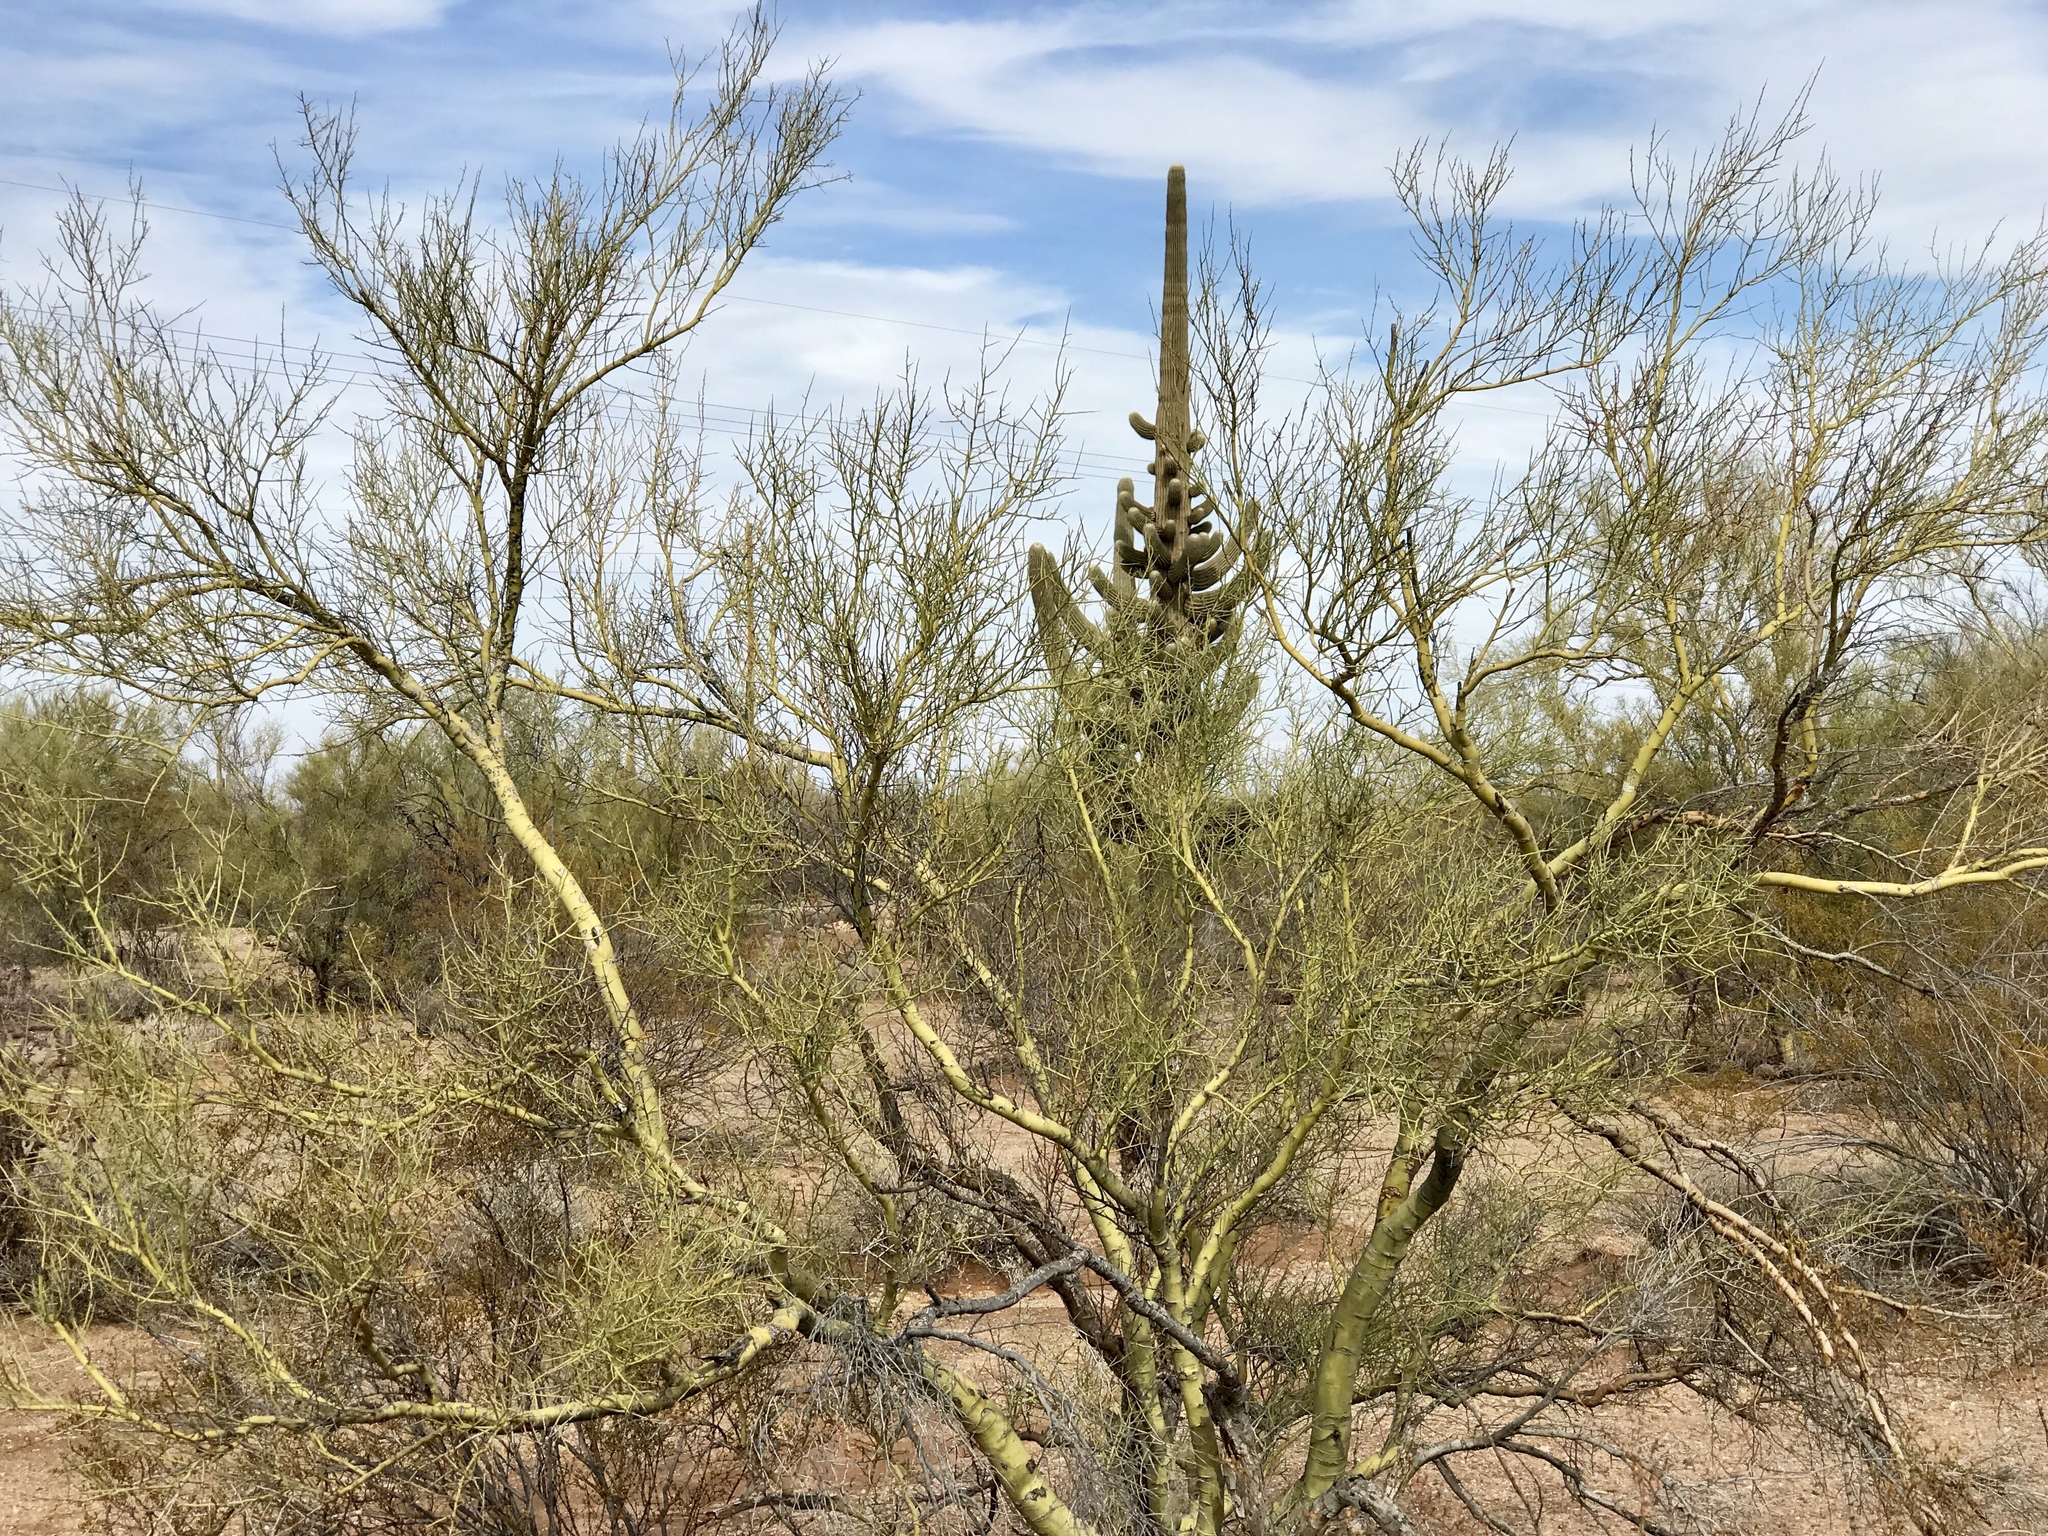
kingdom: Plantae
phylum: Tracheophyta
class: Magnoliopsida
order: Fabales
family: Fabaceae
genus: Parkinsonia
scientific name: Parkinsonia microphylla
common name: Yellow paloverde
